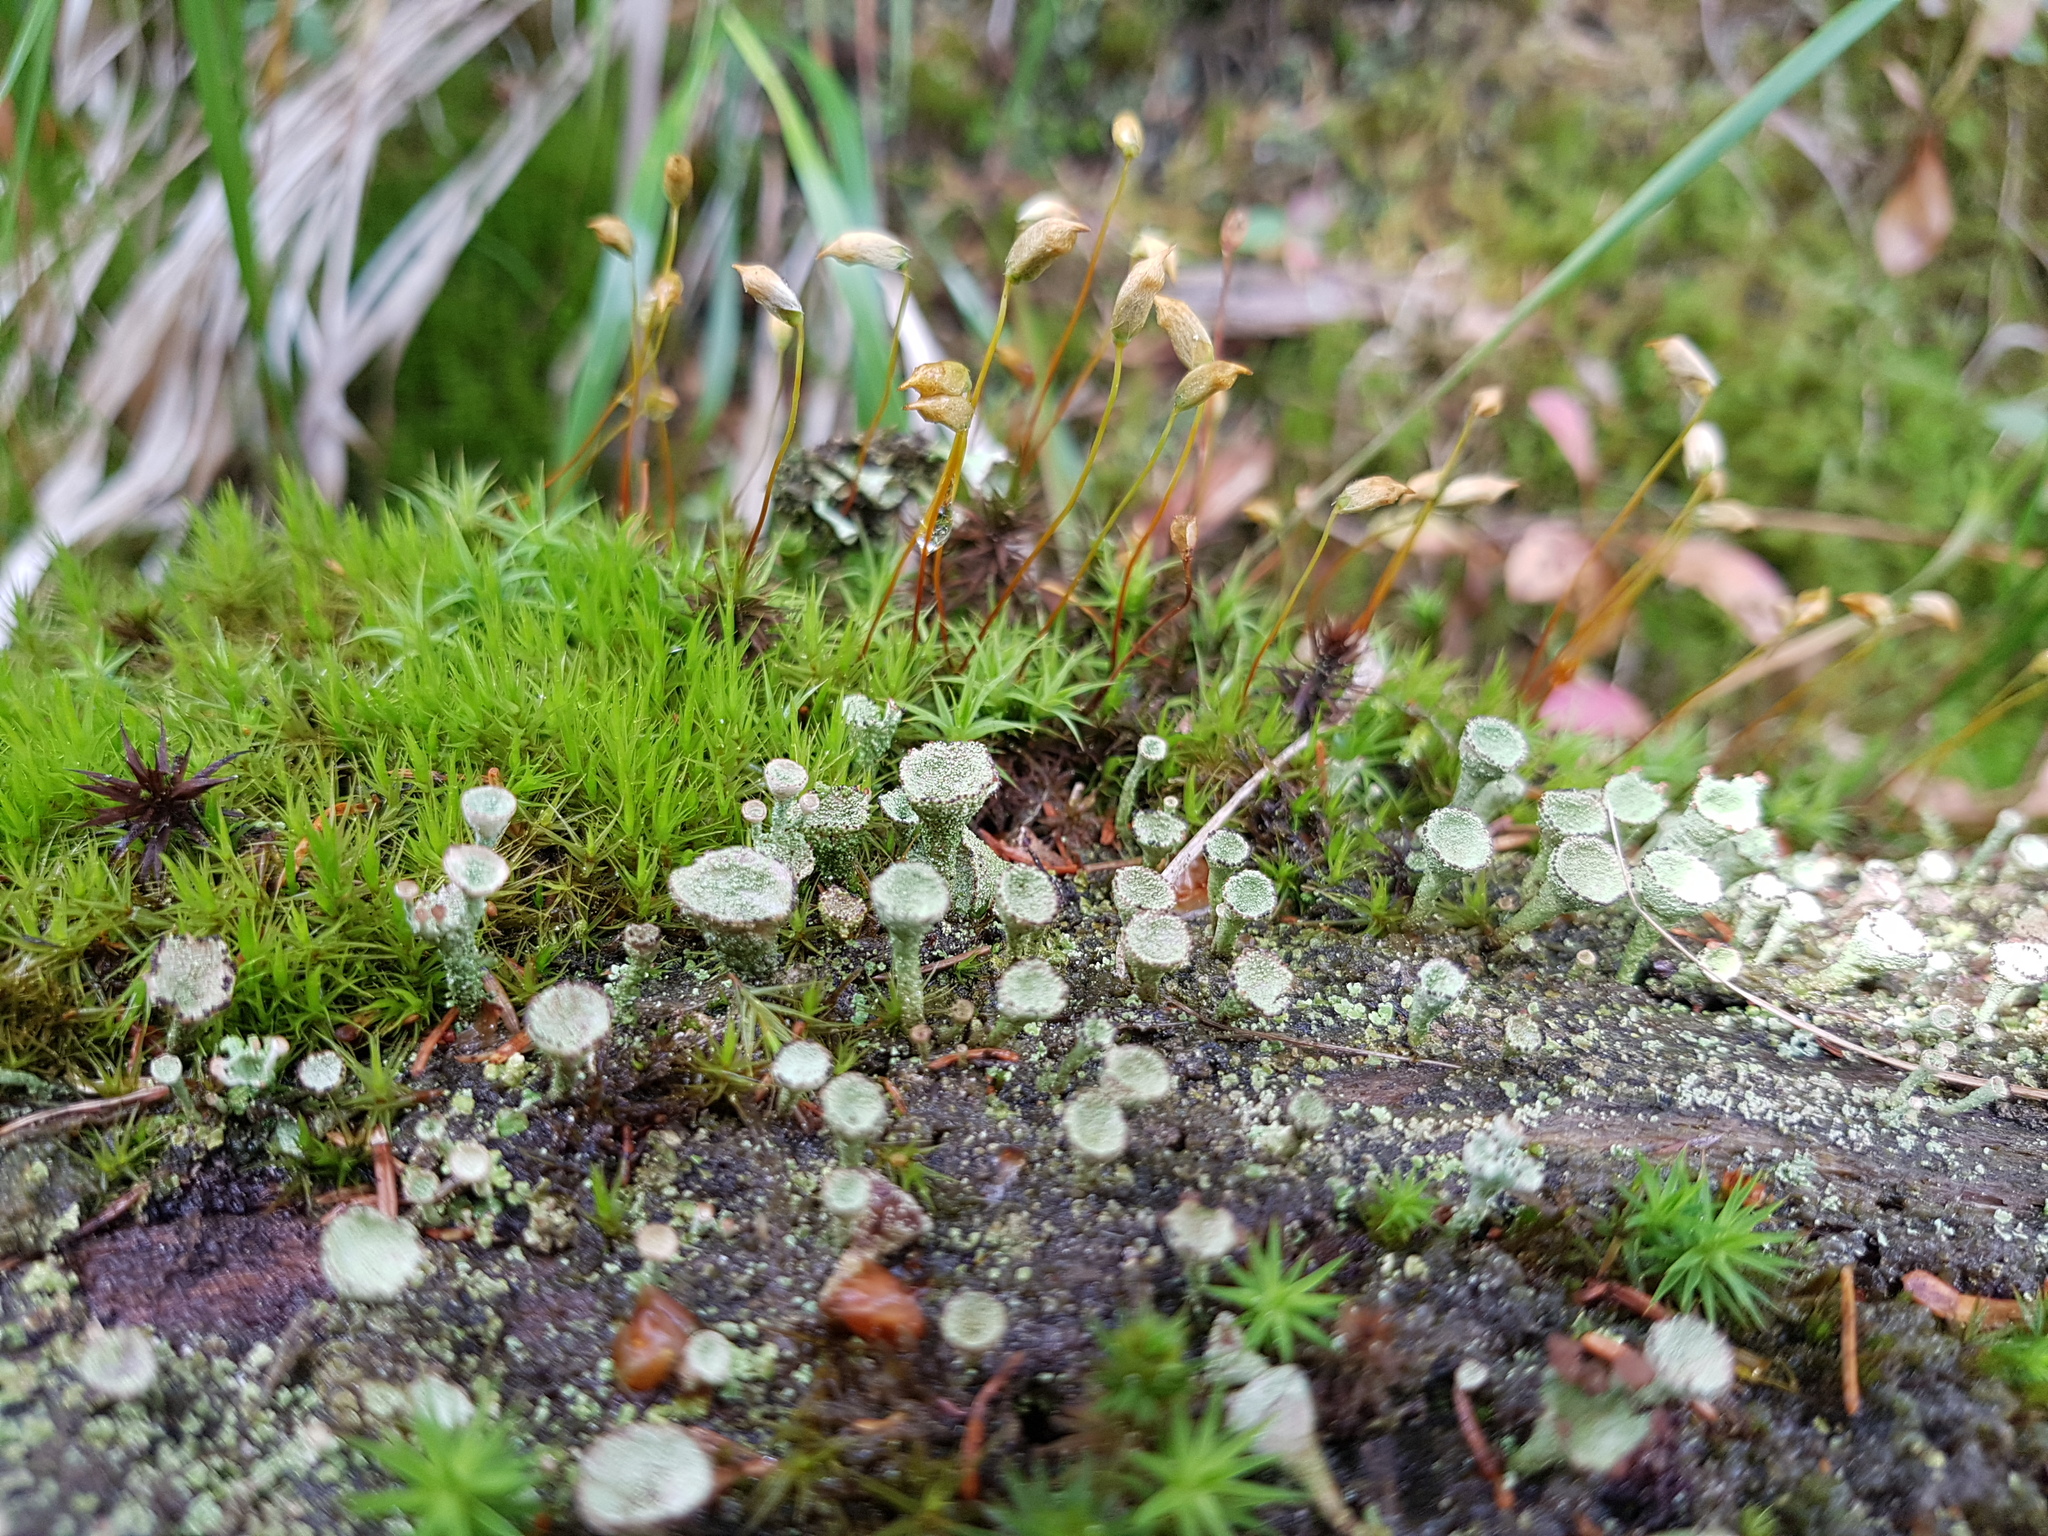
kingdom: Fungi
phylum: Ascomycota
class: Lecanoromycetes
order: Lecanorales
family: Cladoniaceae
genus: Cladonia
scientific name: Cladonia
